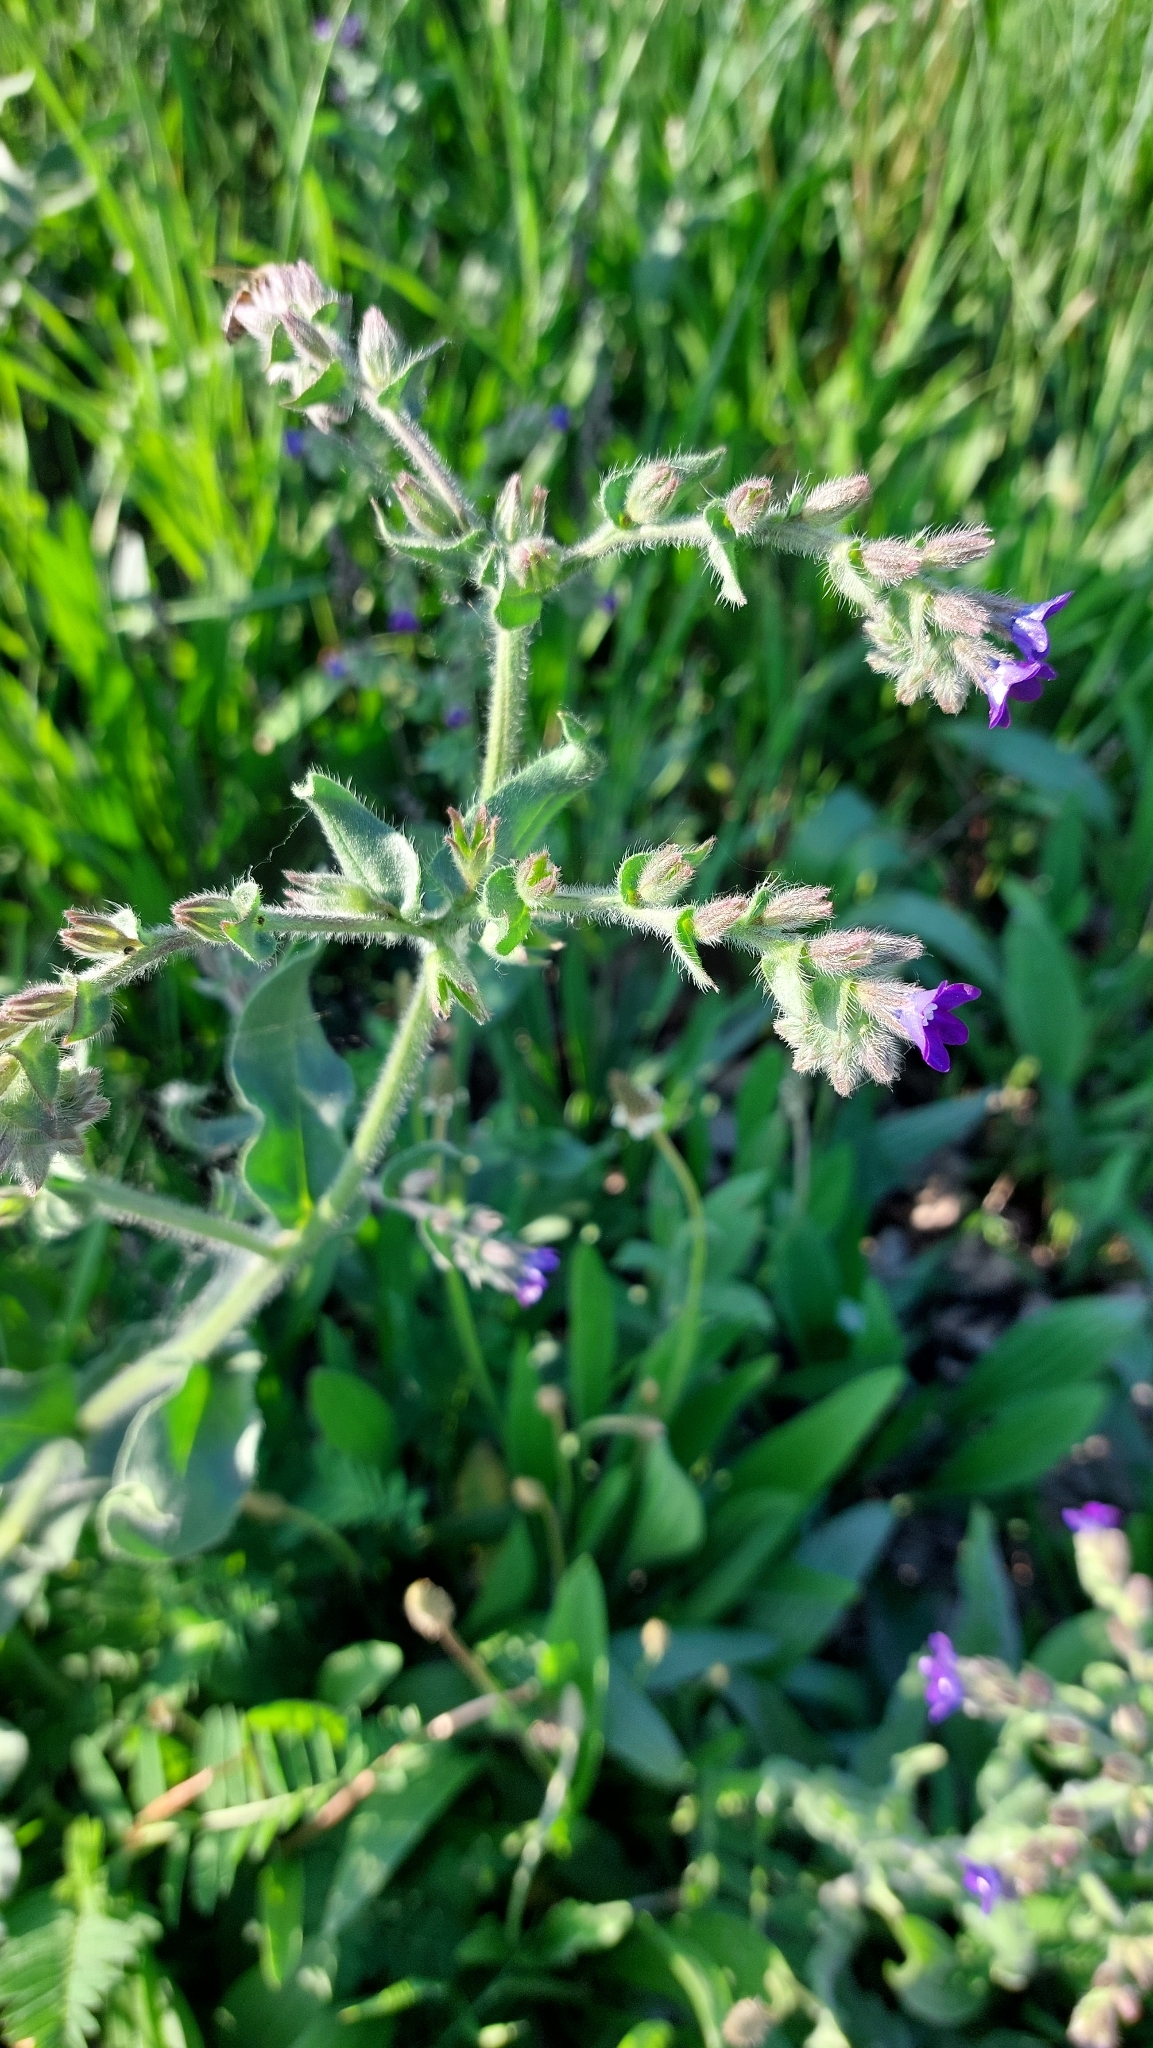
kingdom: Plantae
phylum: Tracheophyta
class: Magnoliopsida
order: Boraginales
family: Boraginaceae
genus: Anchusa
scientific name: Anchusa officinalis
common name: Alkanet
